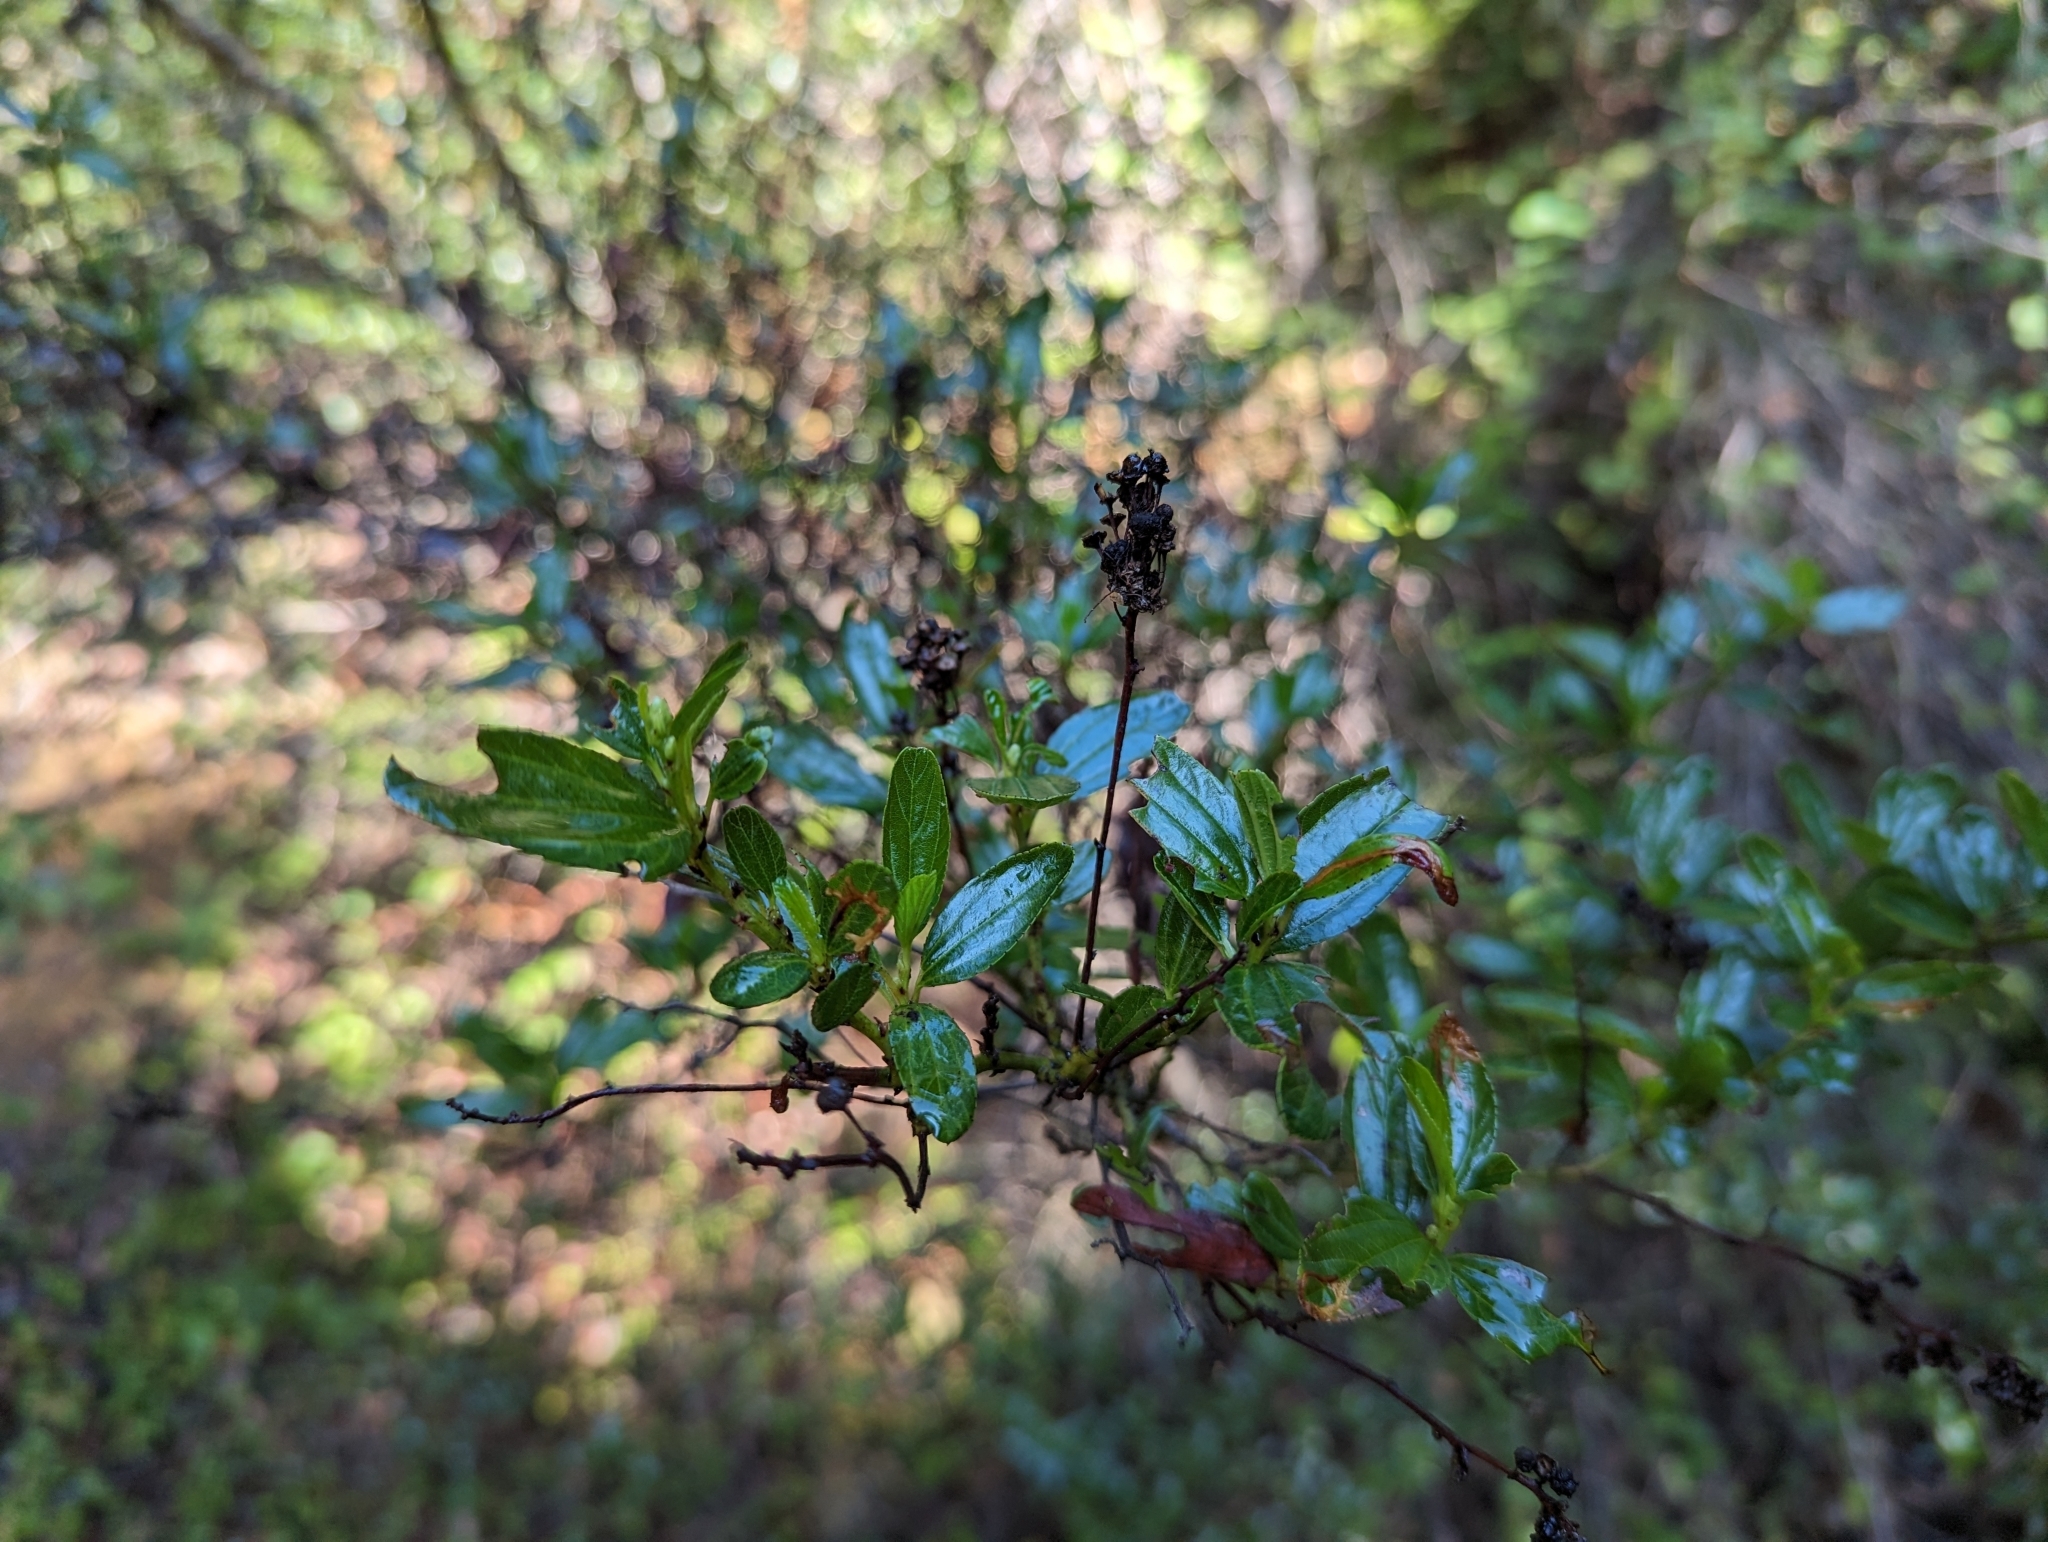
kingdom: Plantae
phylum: Tracheophyta
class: Magnoliopsida
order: Rosales
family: Rhamnaceae
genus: Ceanothus
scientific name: Ceanothus thyrsiflorus
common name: California-lilac
